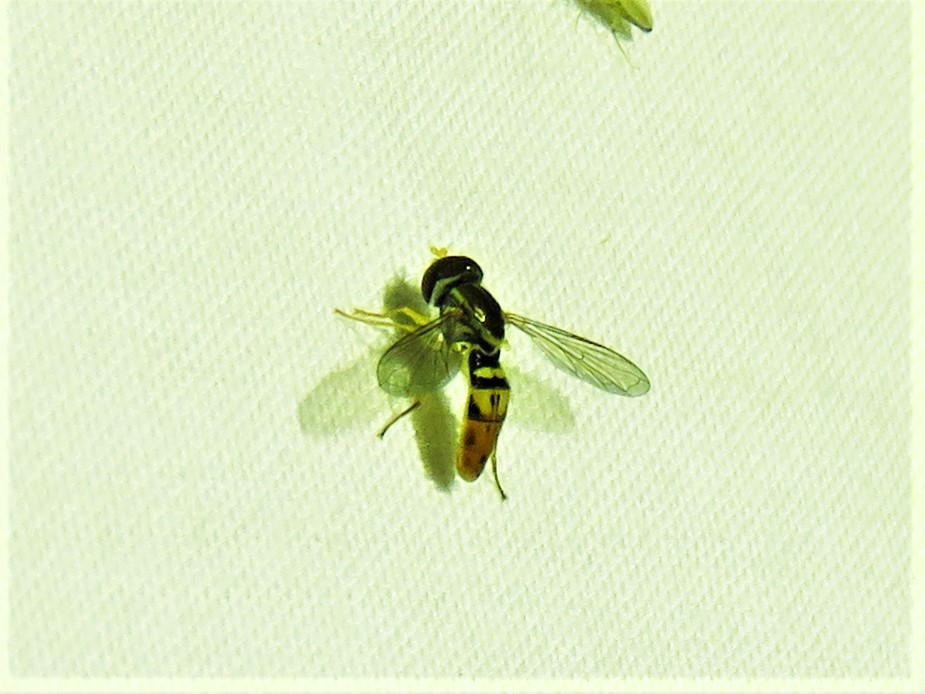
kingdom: Animalia
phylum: Arthropoda
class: Insecta
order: Diptera
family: Syrphidae
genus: Toxomerus
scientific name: Toxomerus marginatus
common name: Syrphid fly
